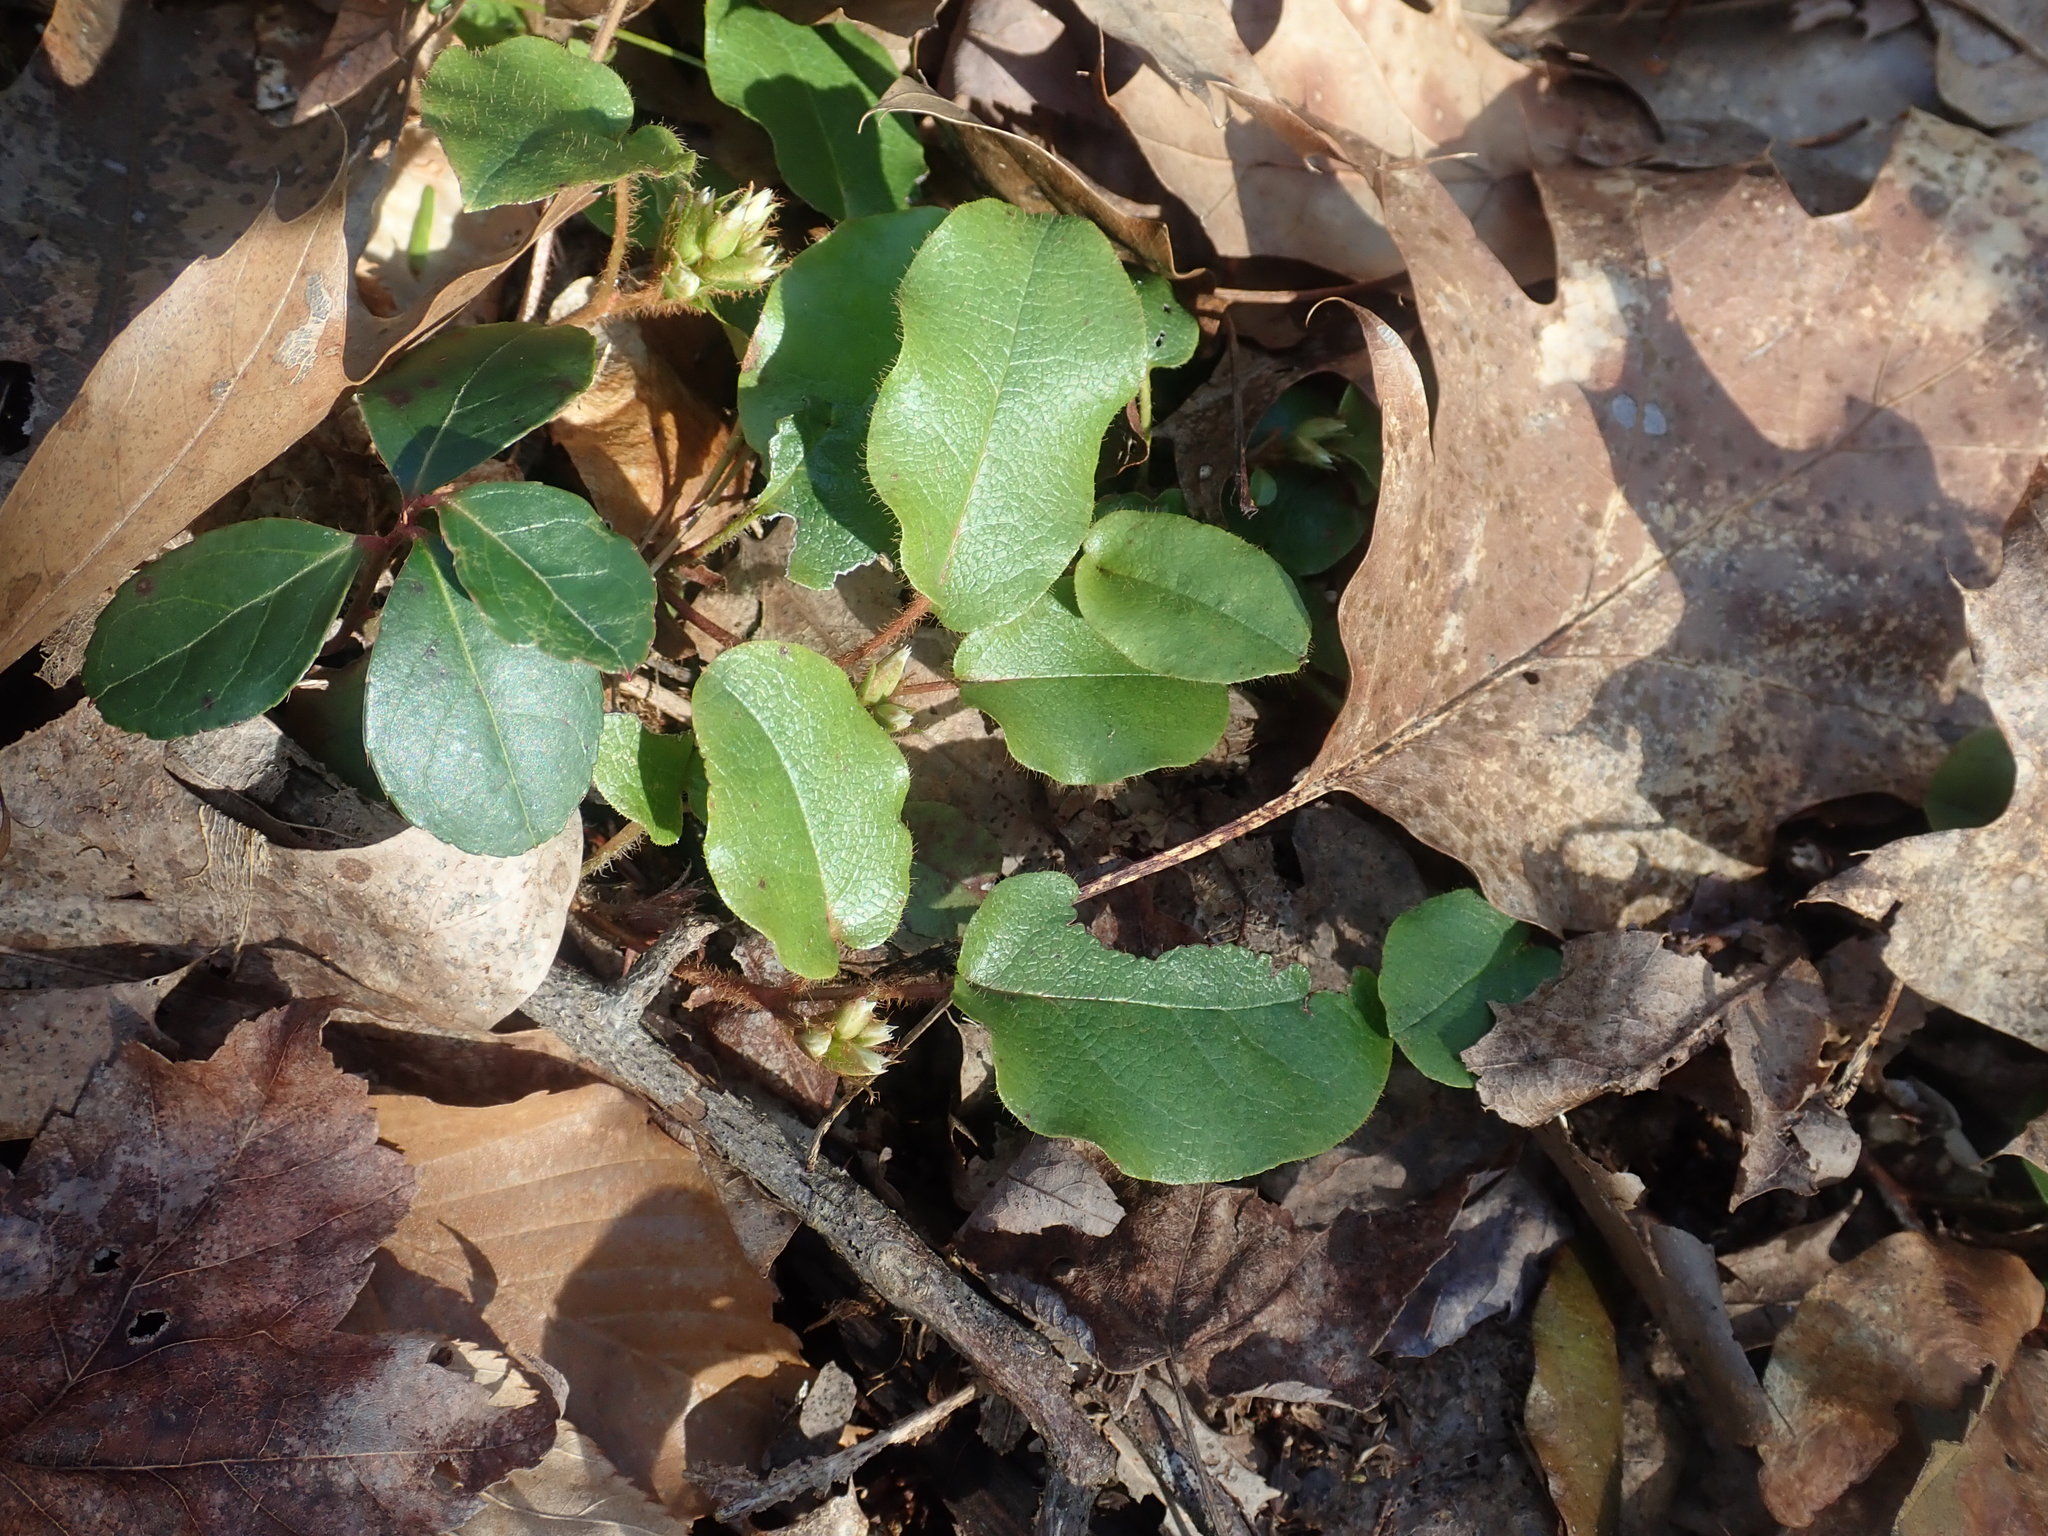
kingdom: Plantae
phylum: Tracheophyta
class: Magnoliopsida
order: Ericales
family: Ericaceae
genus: Epigaea
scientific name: Epigaea repens
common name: Gravelroot
